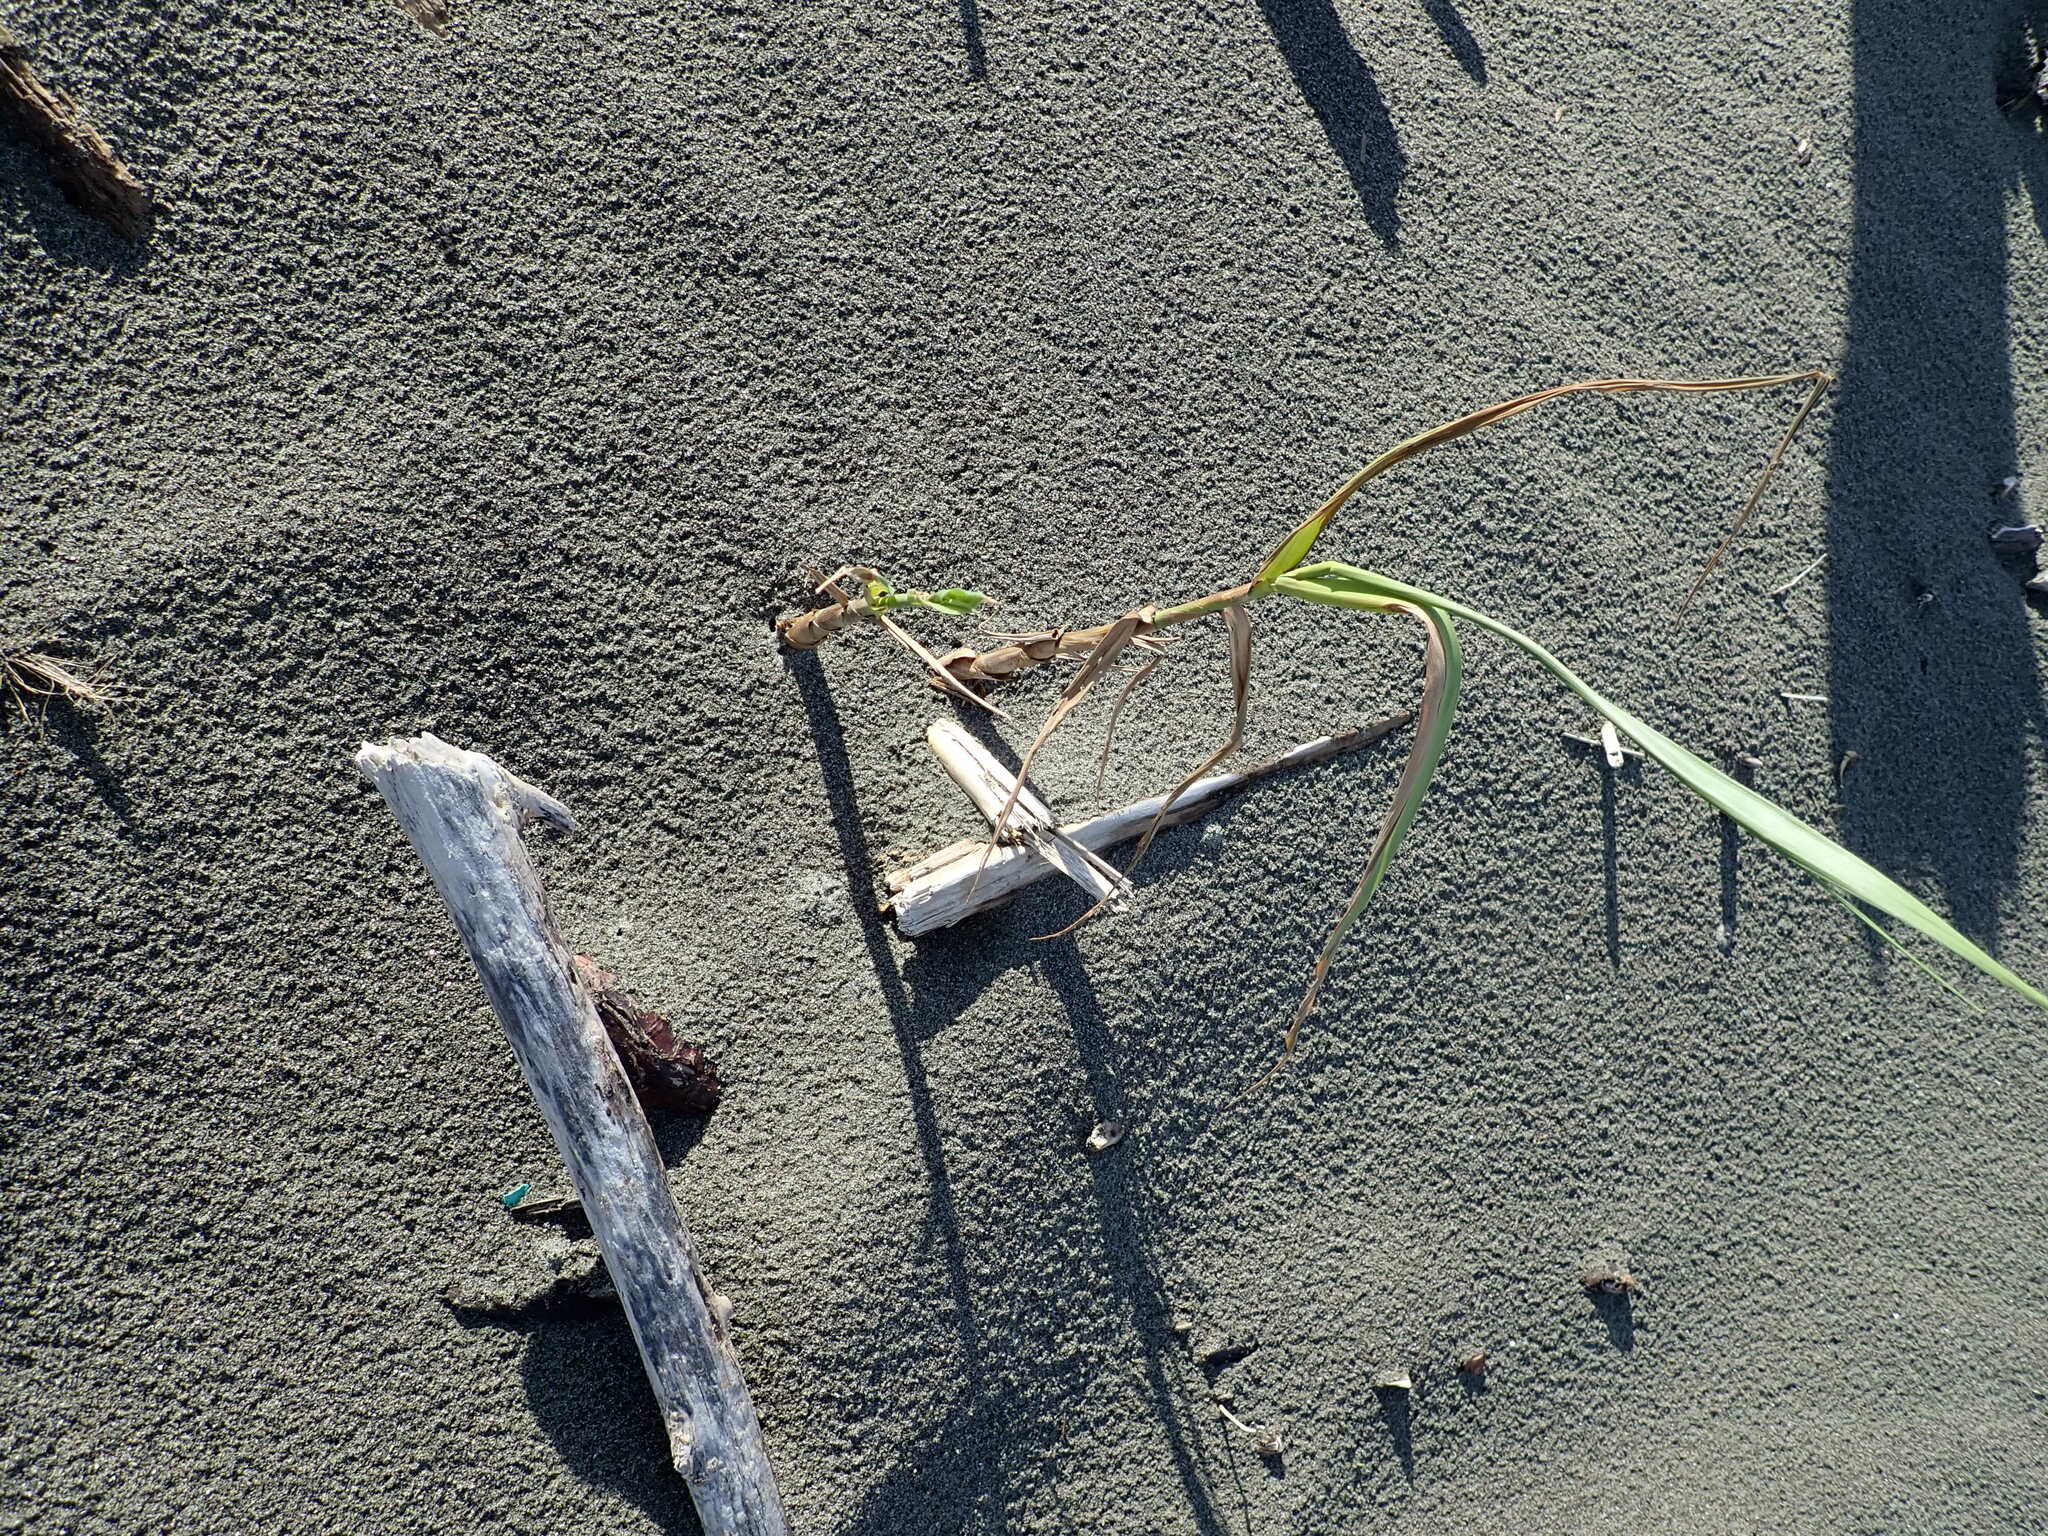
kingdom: Plantae
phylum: Tracheophyta
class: Liliopsida
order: Poales
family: Poaceae
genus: Phragmites
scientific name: Phragmites karka
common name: Tropical reed
